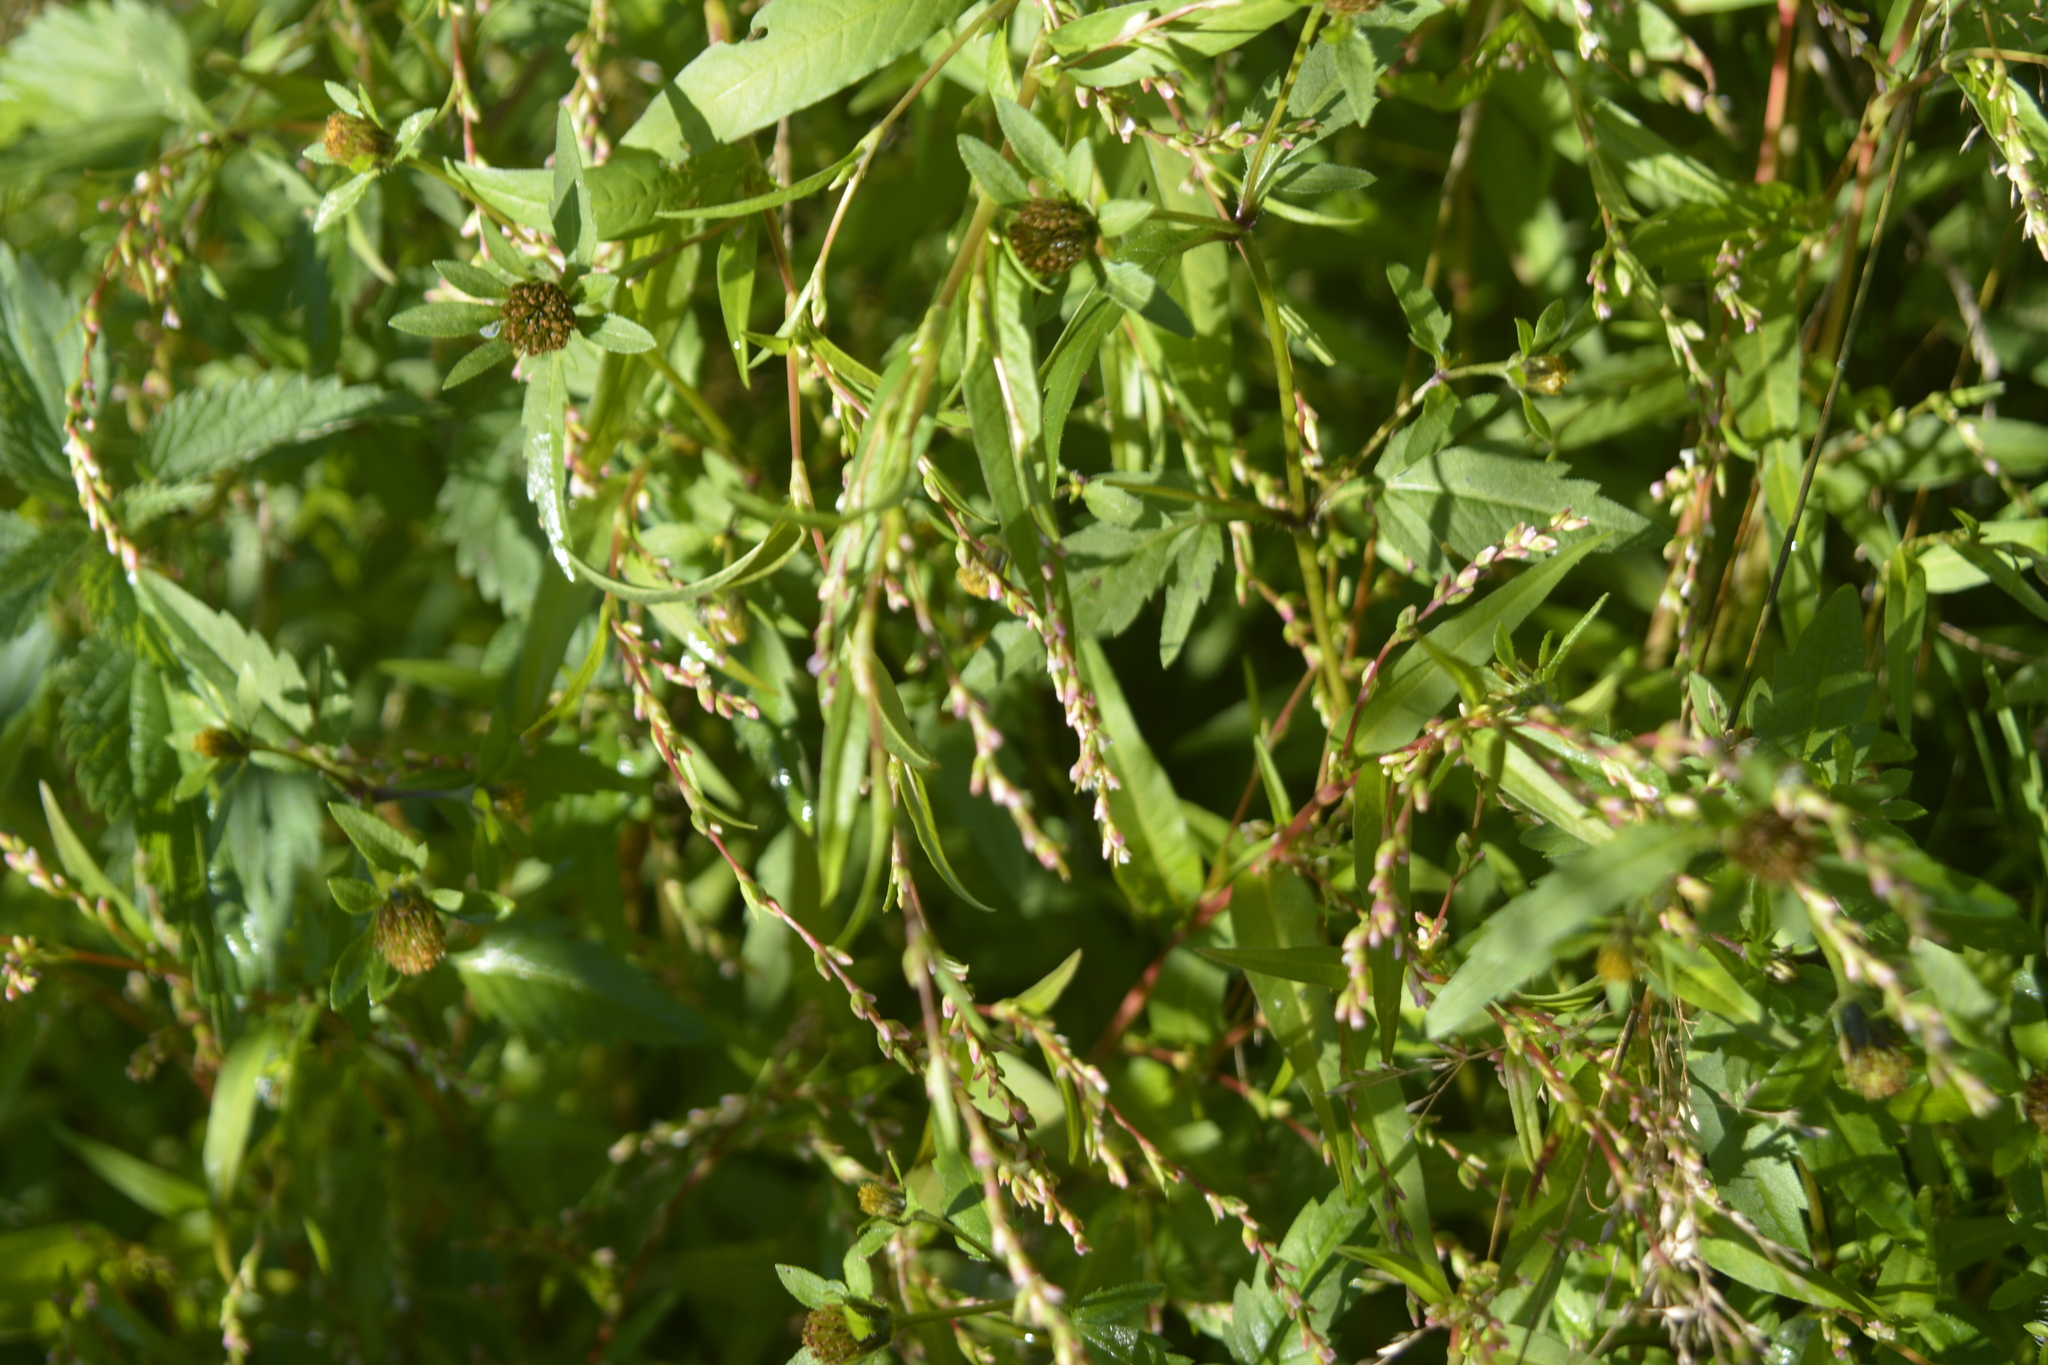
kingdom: Plantae
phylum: Tracheophyta
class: Magnoliopsida
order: Caryophyllales
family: Polygonaceae
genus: Persicaria
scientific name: Persicaria hydropiper
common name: Water-pepper
